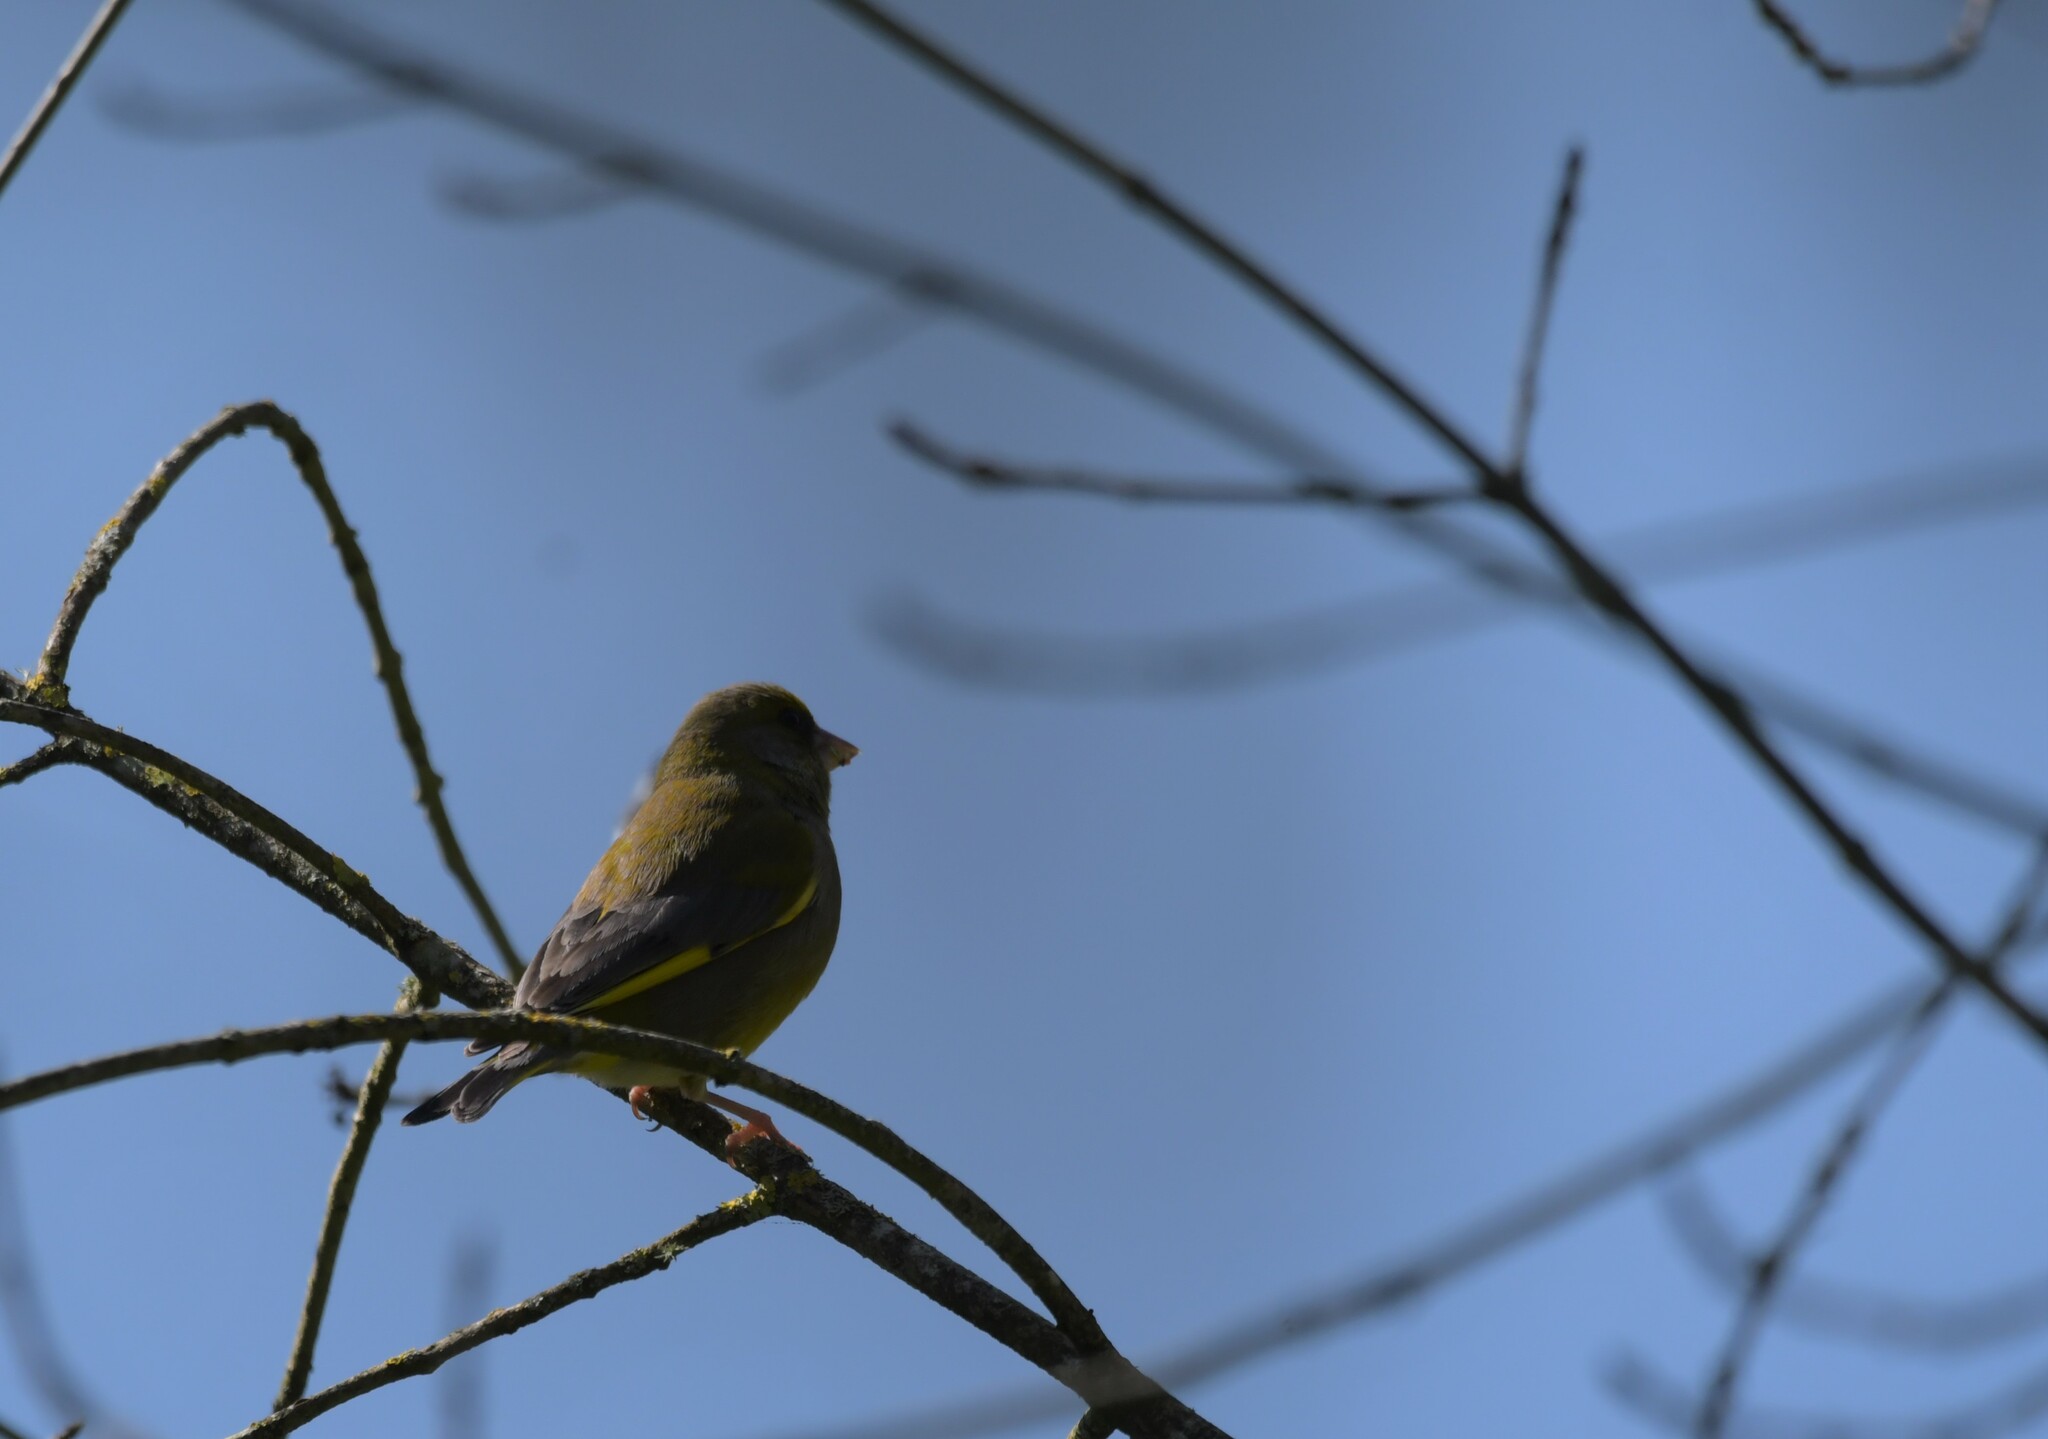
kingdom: Plantae
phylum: Tracheophyta
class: Liliopsida
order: Poales
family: Poaceae
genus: Chloris
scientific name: Chloris chloris
